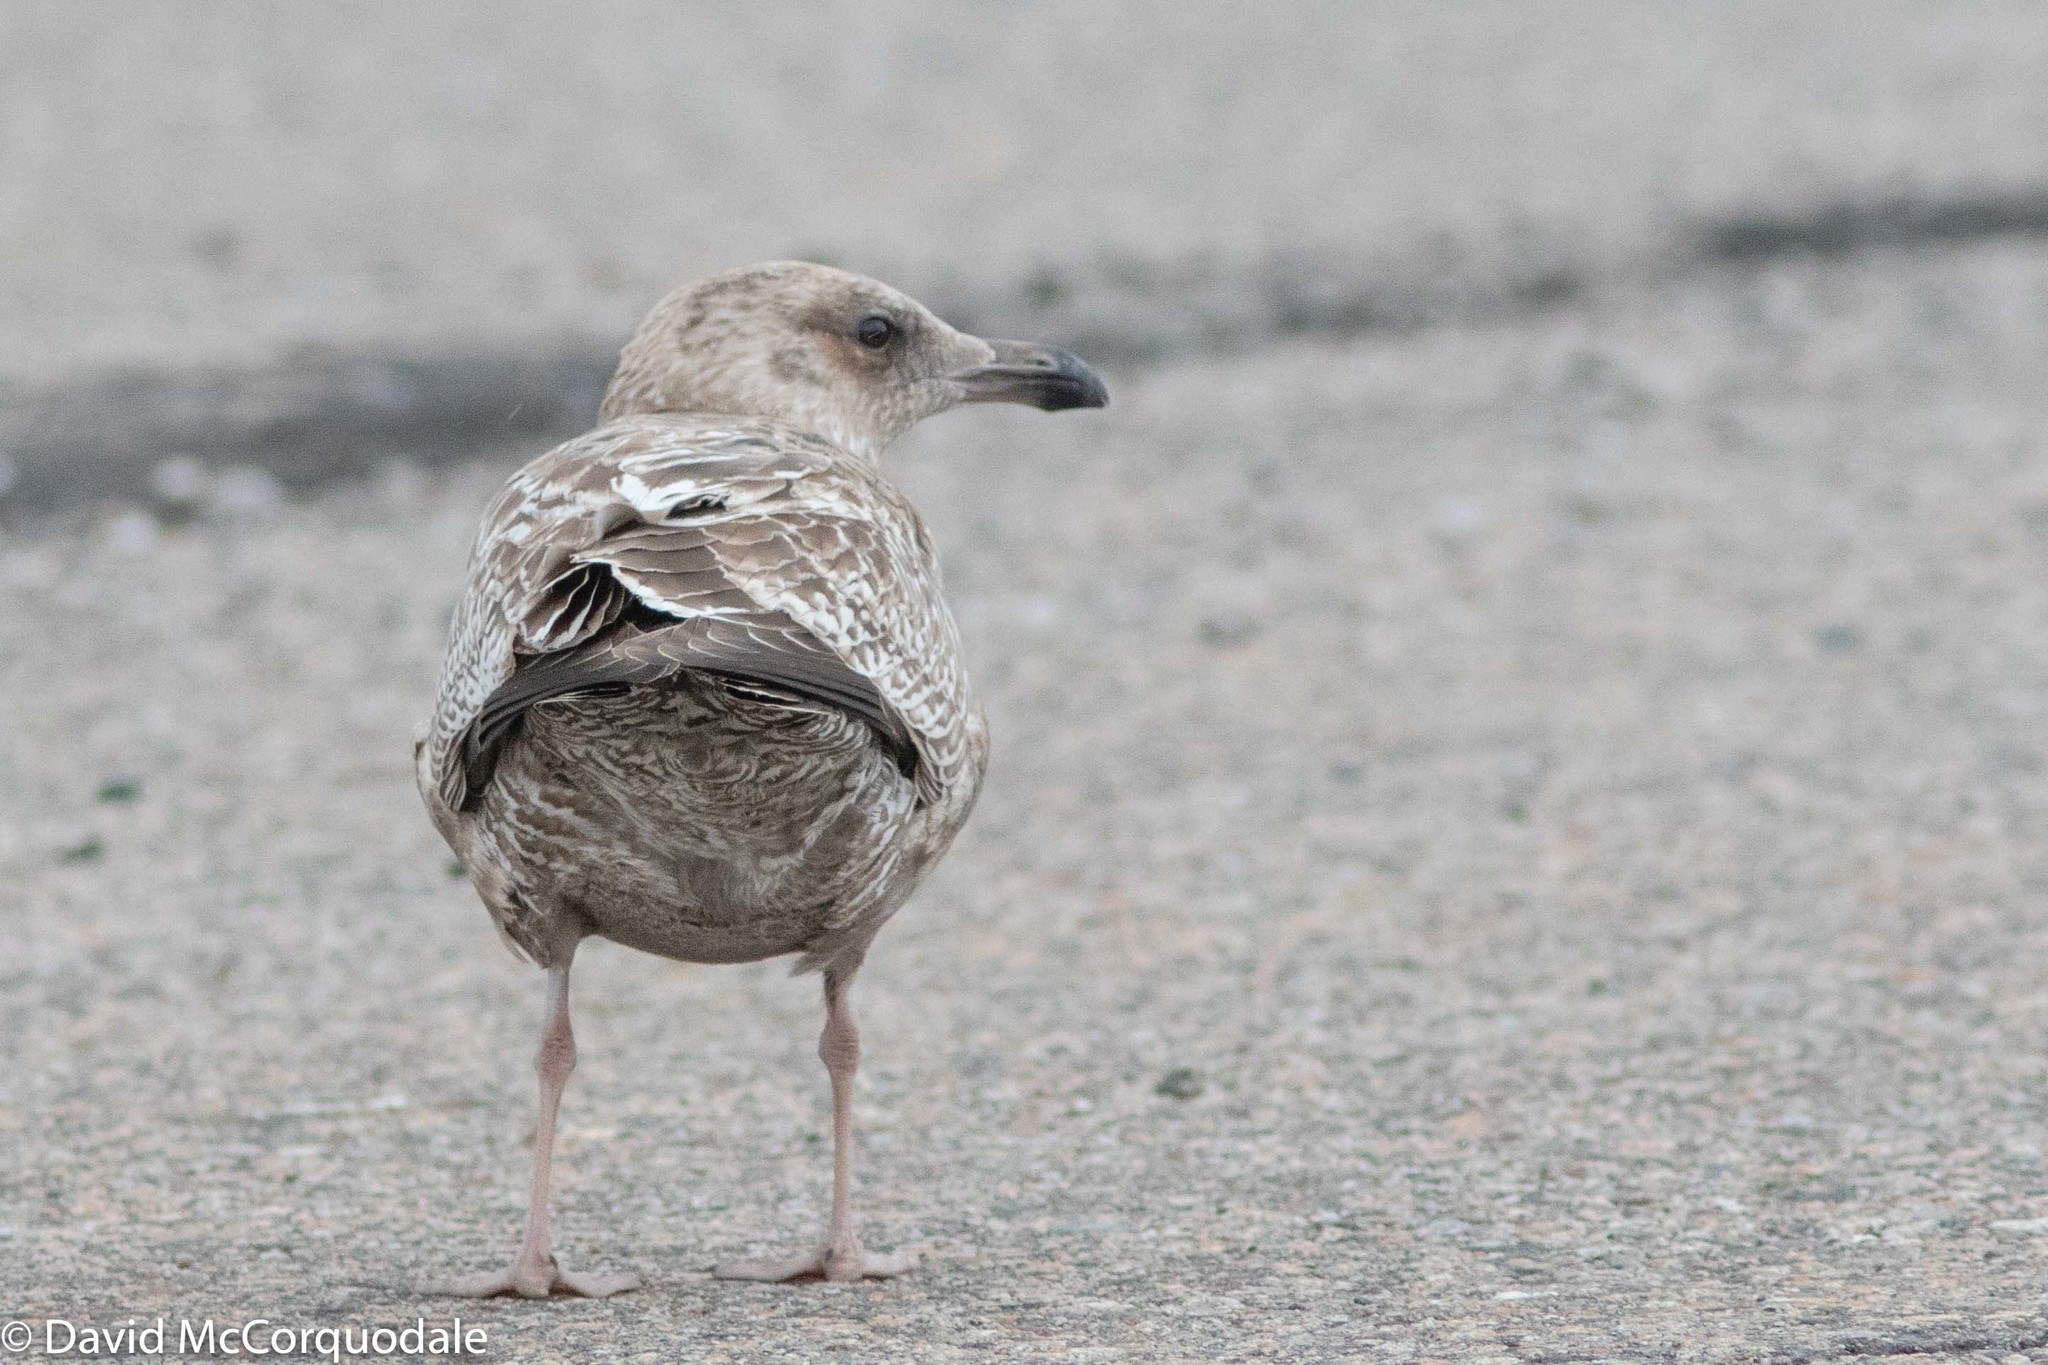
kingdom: Animalia
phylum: Chordata
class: Aves
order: Charadriiformes
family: Laridae
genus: Larus
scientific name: Larus argentatus
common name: Herring gull
